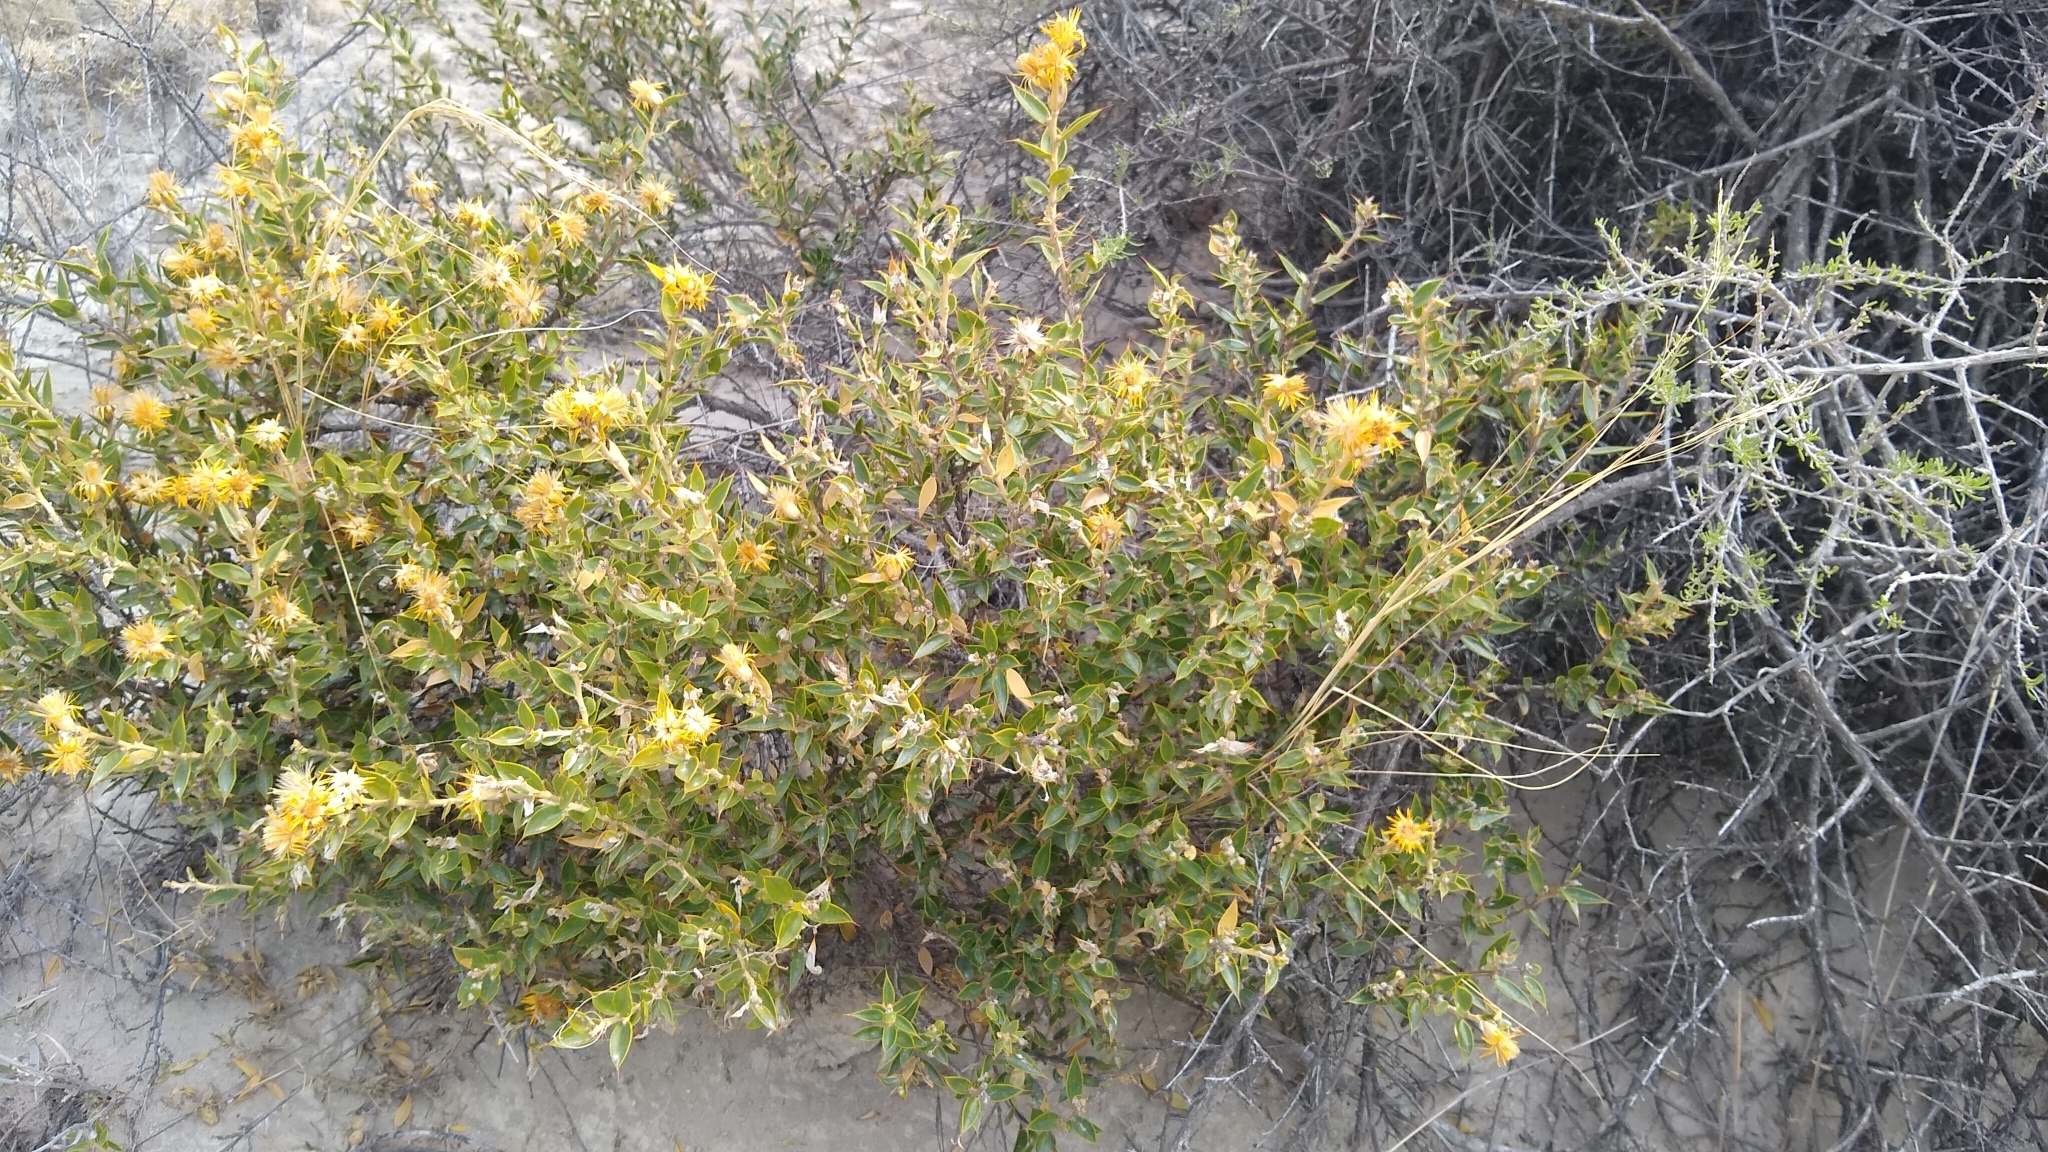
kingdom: Plantae
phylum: Tracheophyta
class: Magnoliopsida
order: Asterales
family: Asteraceae
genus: Chuquiraga
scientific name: Chuquiraga avellanedae
